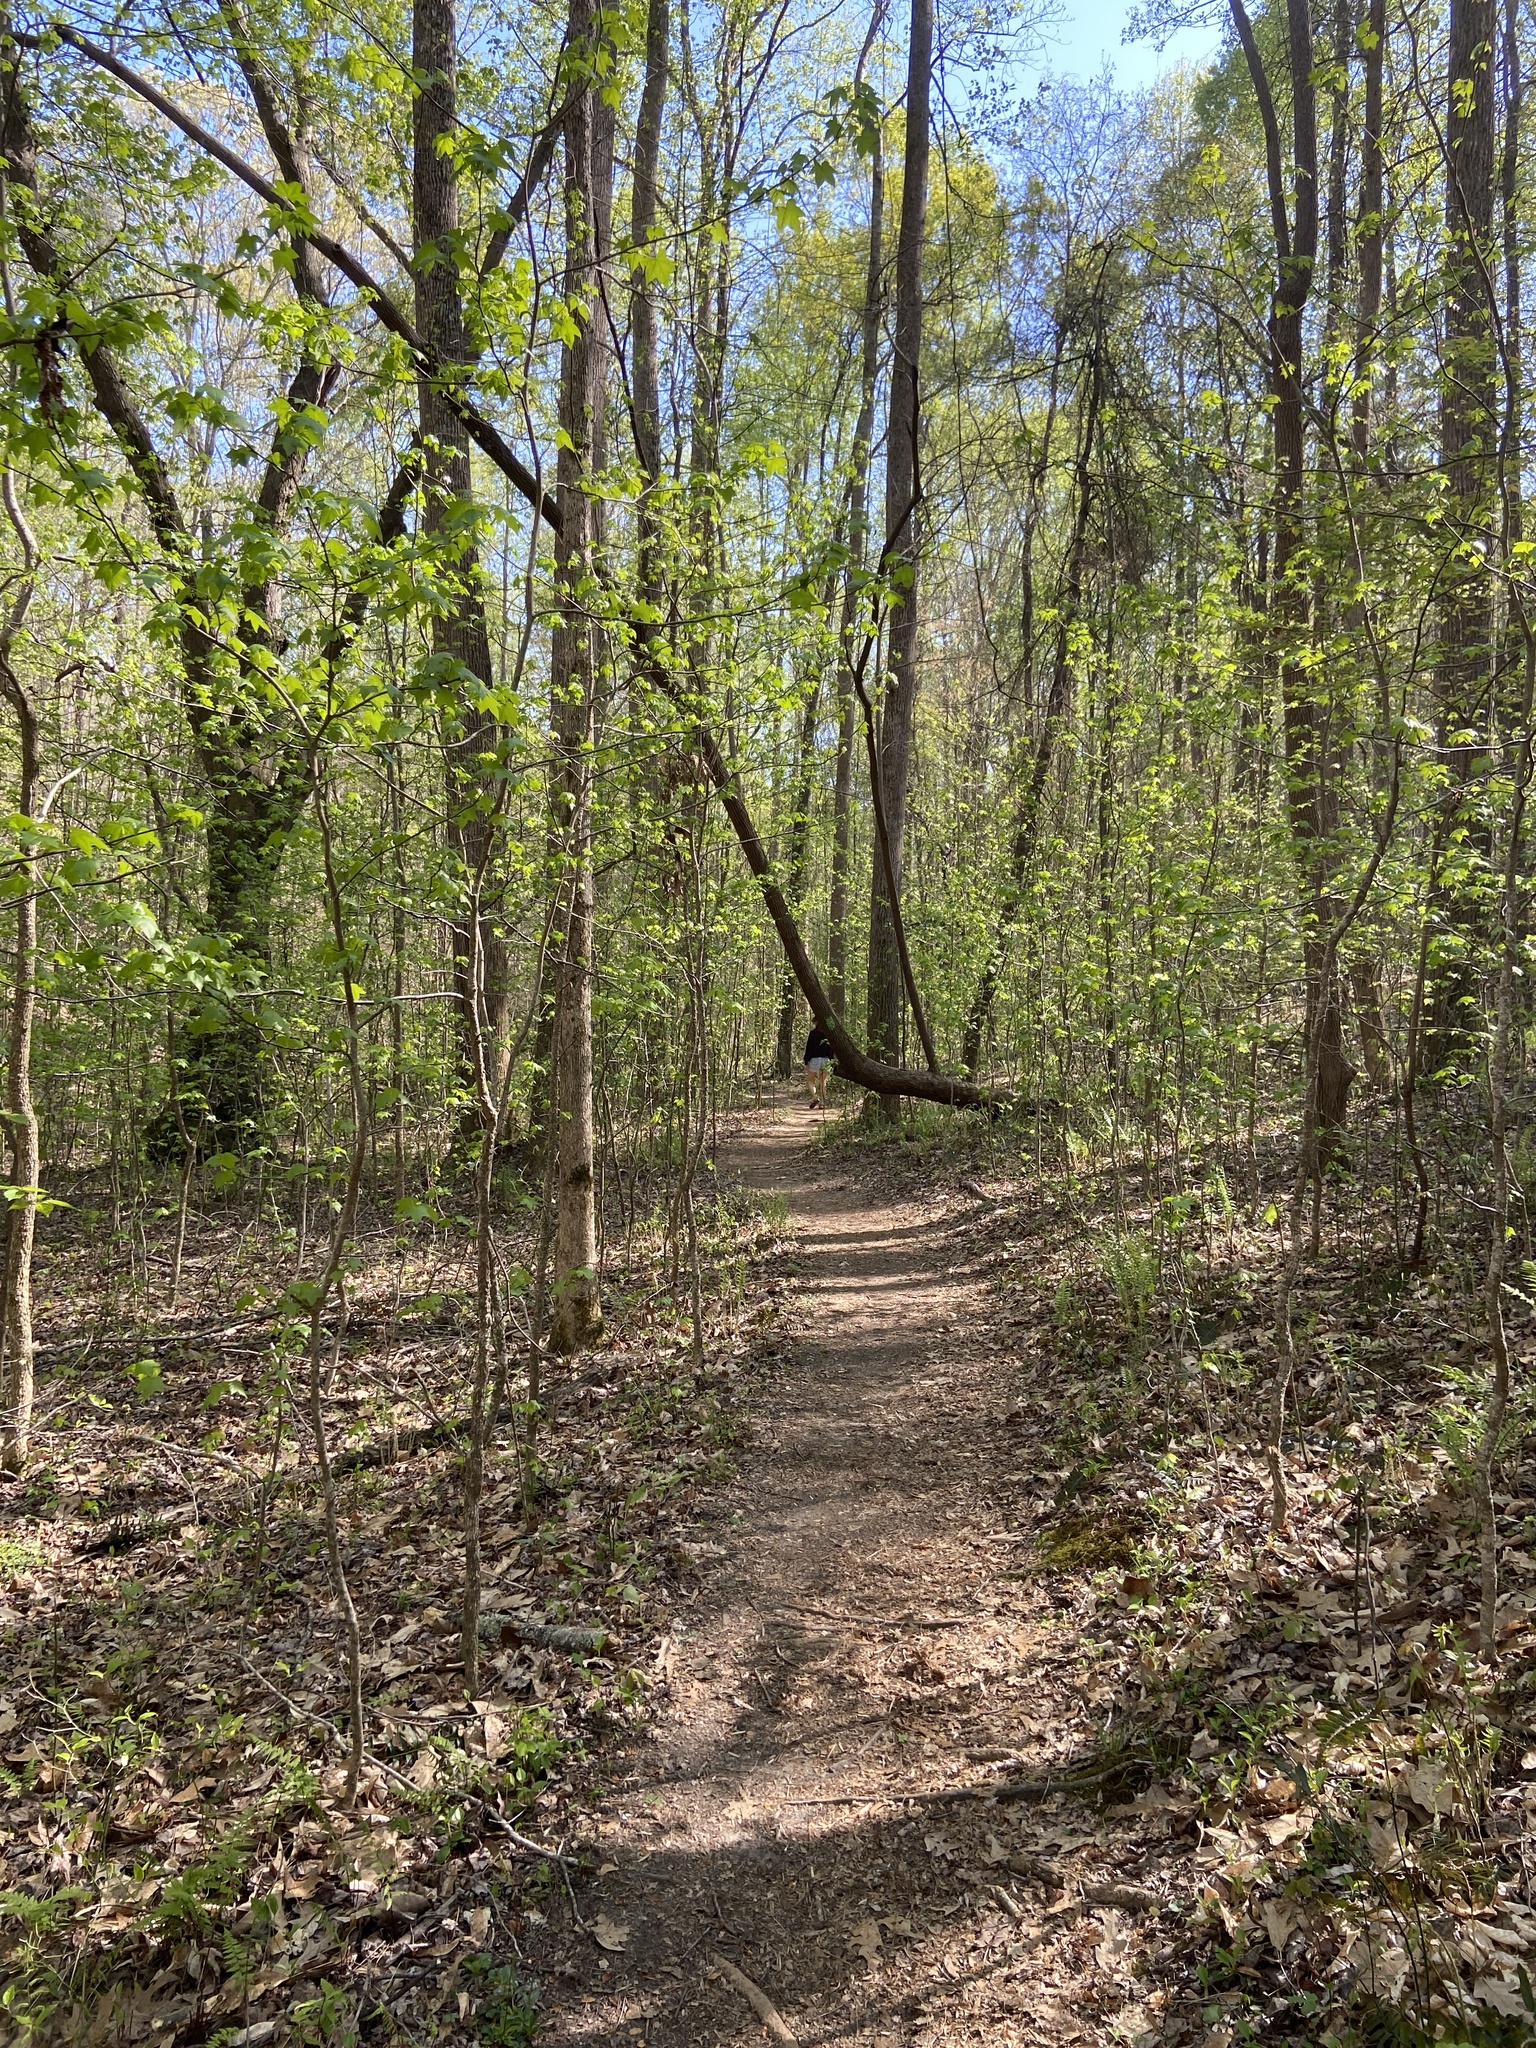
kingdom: Plantae
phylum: Tracheophyta
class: Magnoliopsida
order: Saxifragales
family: Altingiaceae
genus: Liquidambar
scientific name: Liquidambar styraciflua
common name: Sweet gum
